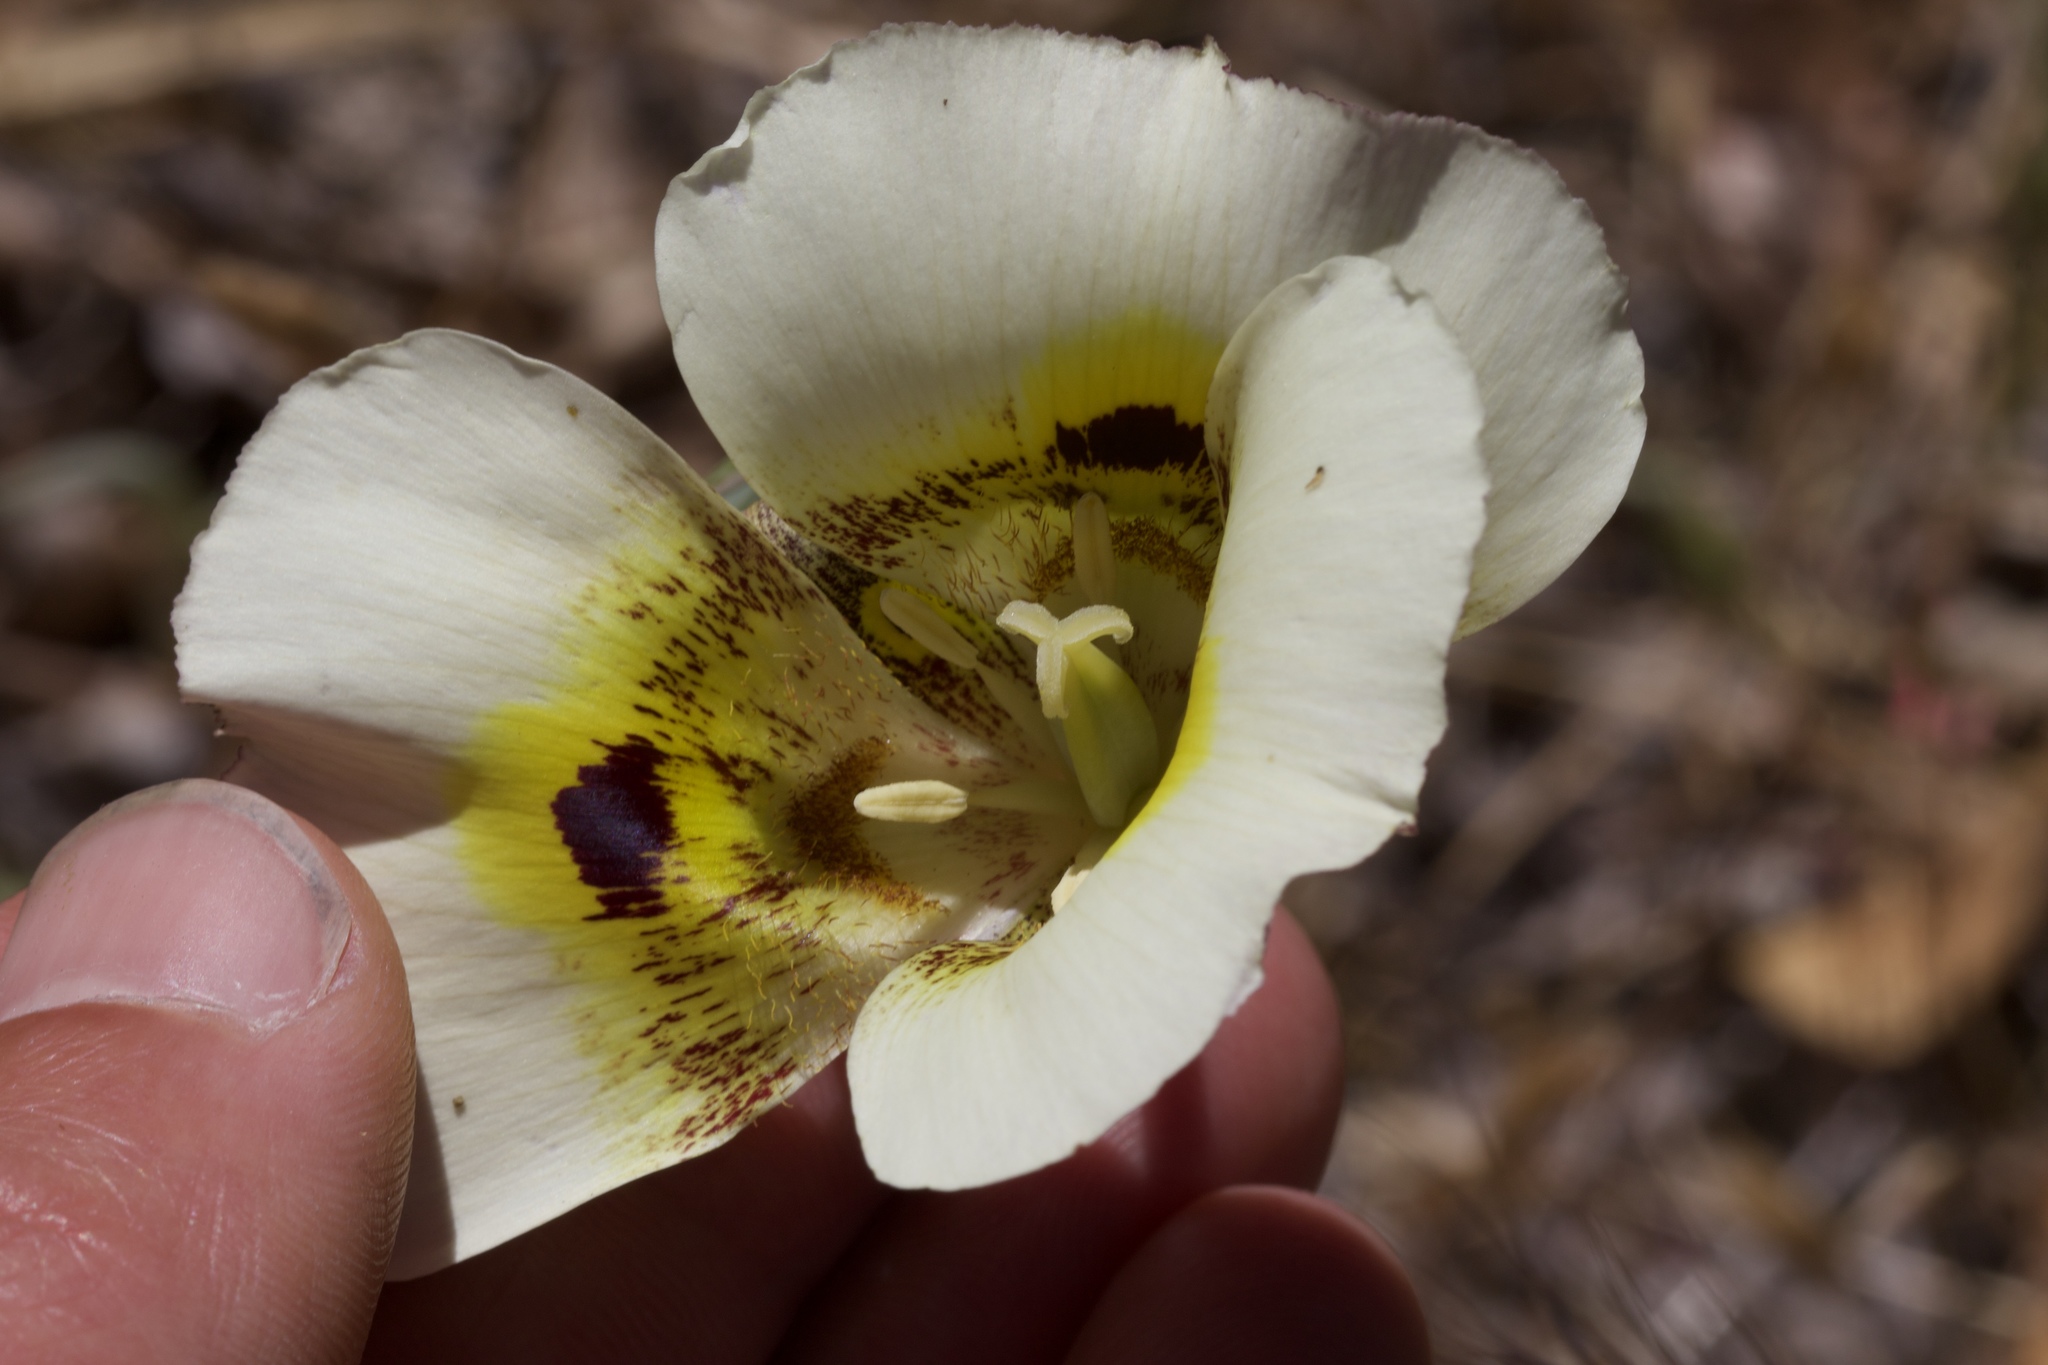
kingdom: Plantae
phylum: Tracheophyta
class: Liliopsida
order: Liliales
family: Liliaceae
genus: Calochortus
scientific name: Calochortus superbus
